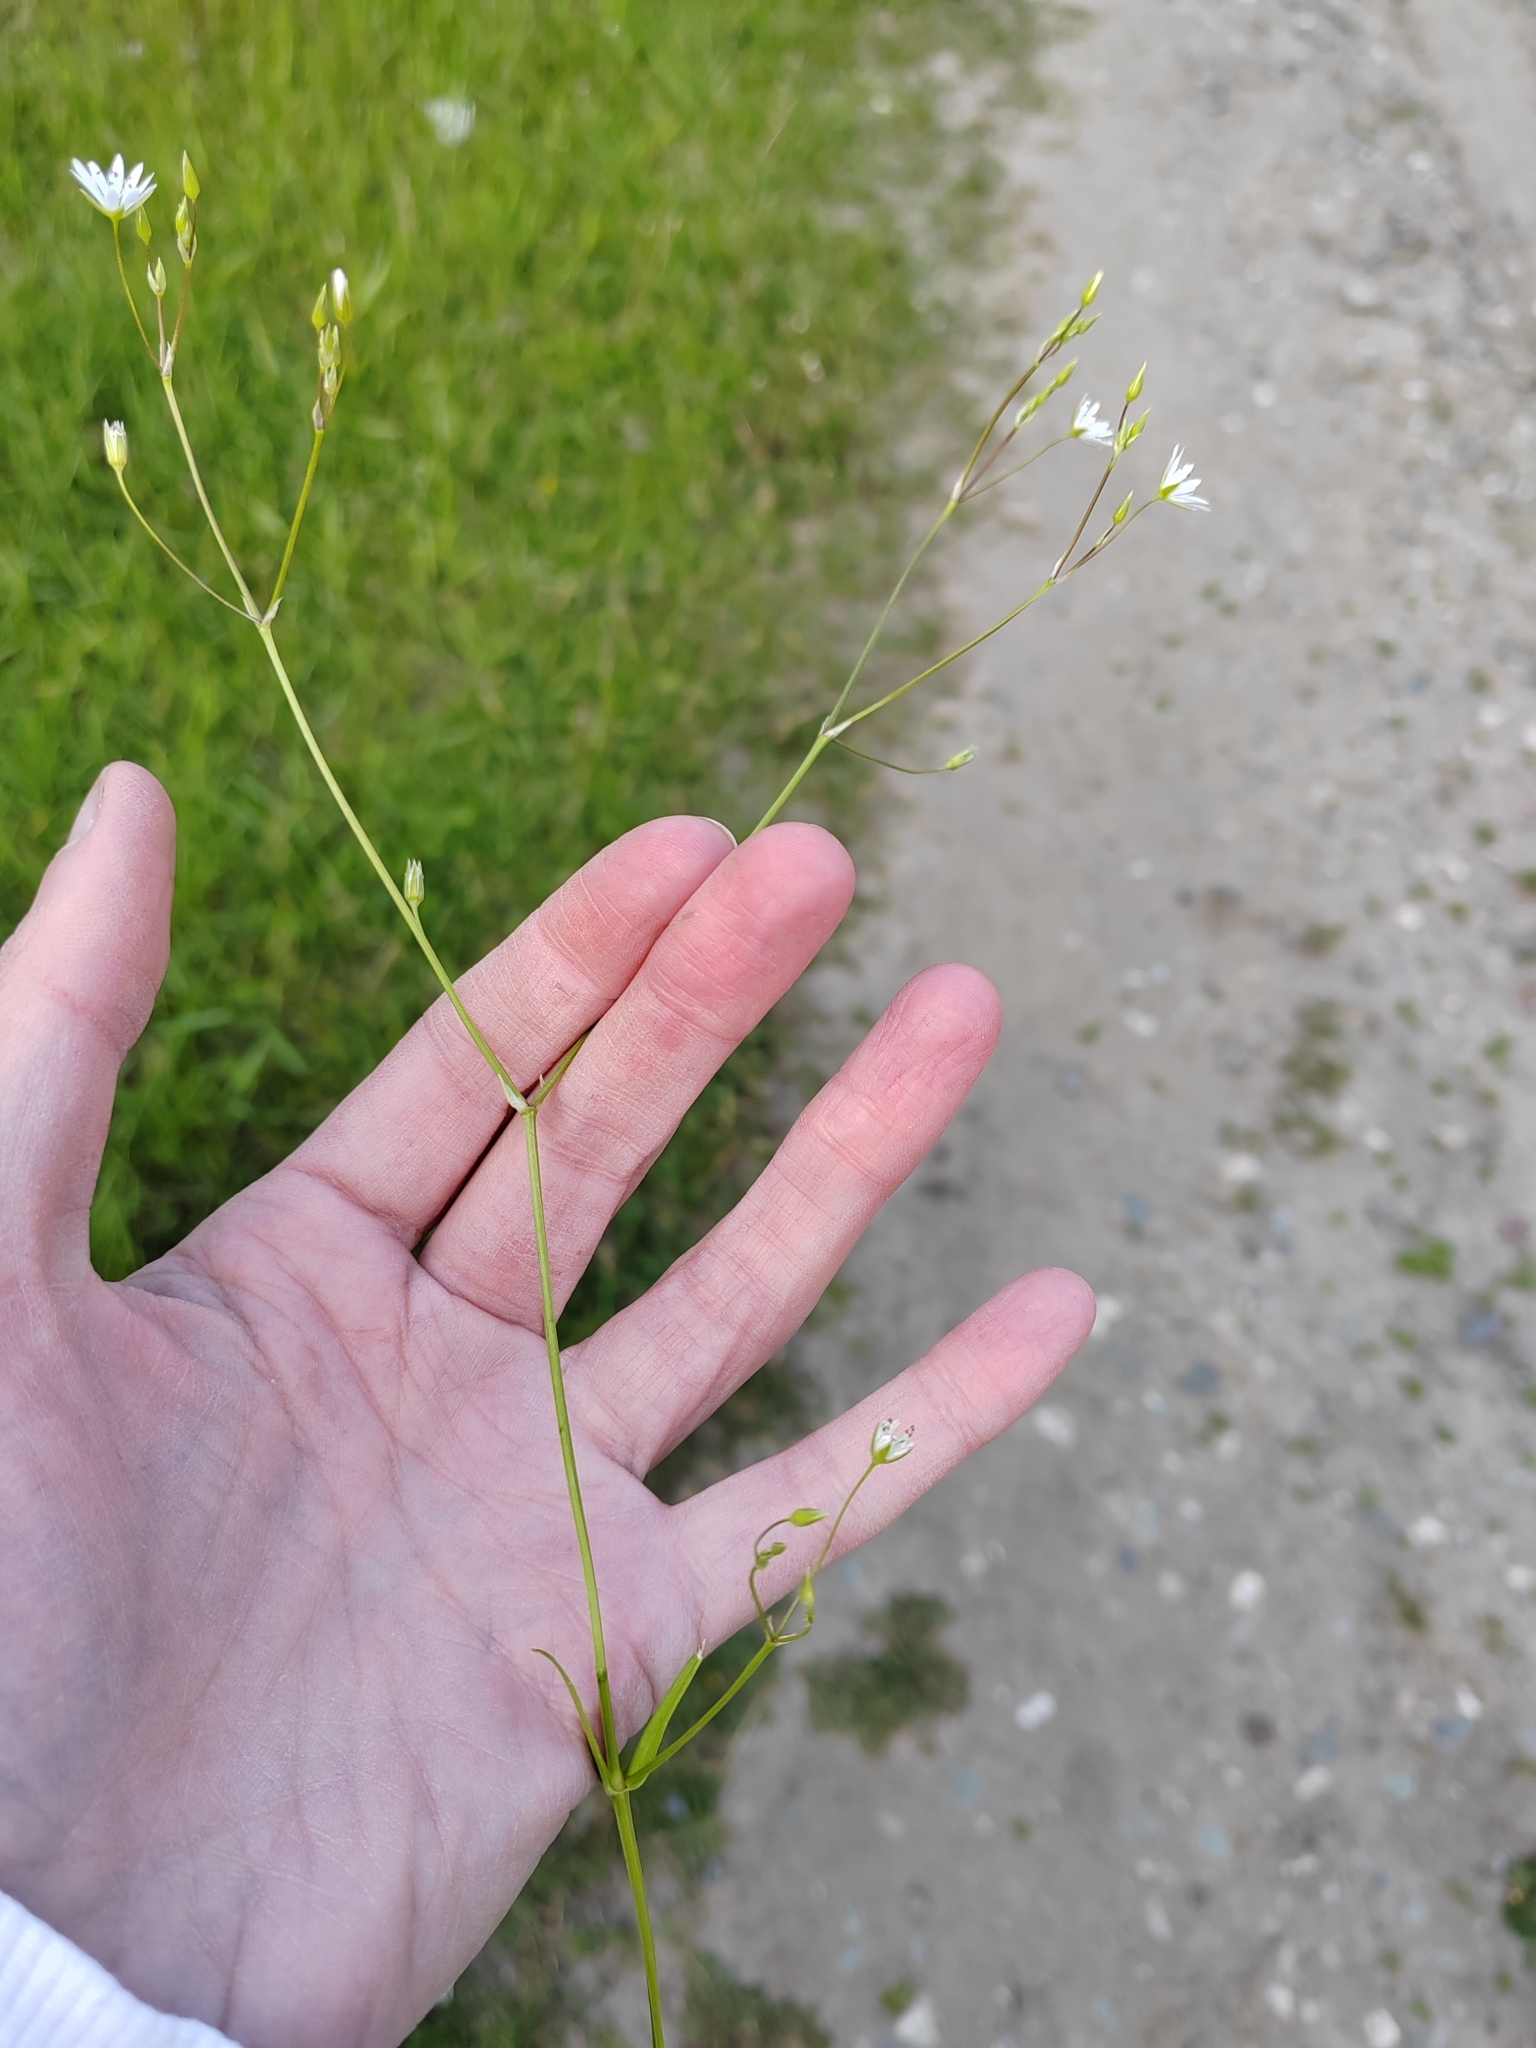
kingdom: Plantae
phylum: Tracheophyta
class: Magnoliopsida
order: Caryophyllales
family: Caryophyllaceae
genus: Stellaria
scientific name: Stellaria graminea
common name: Grass-like starwort
